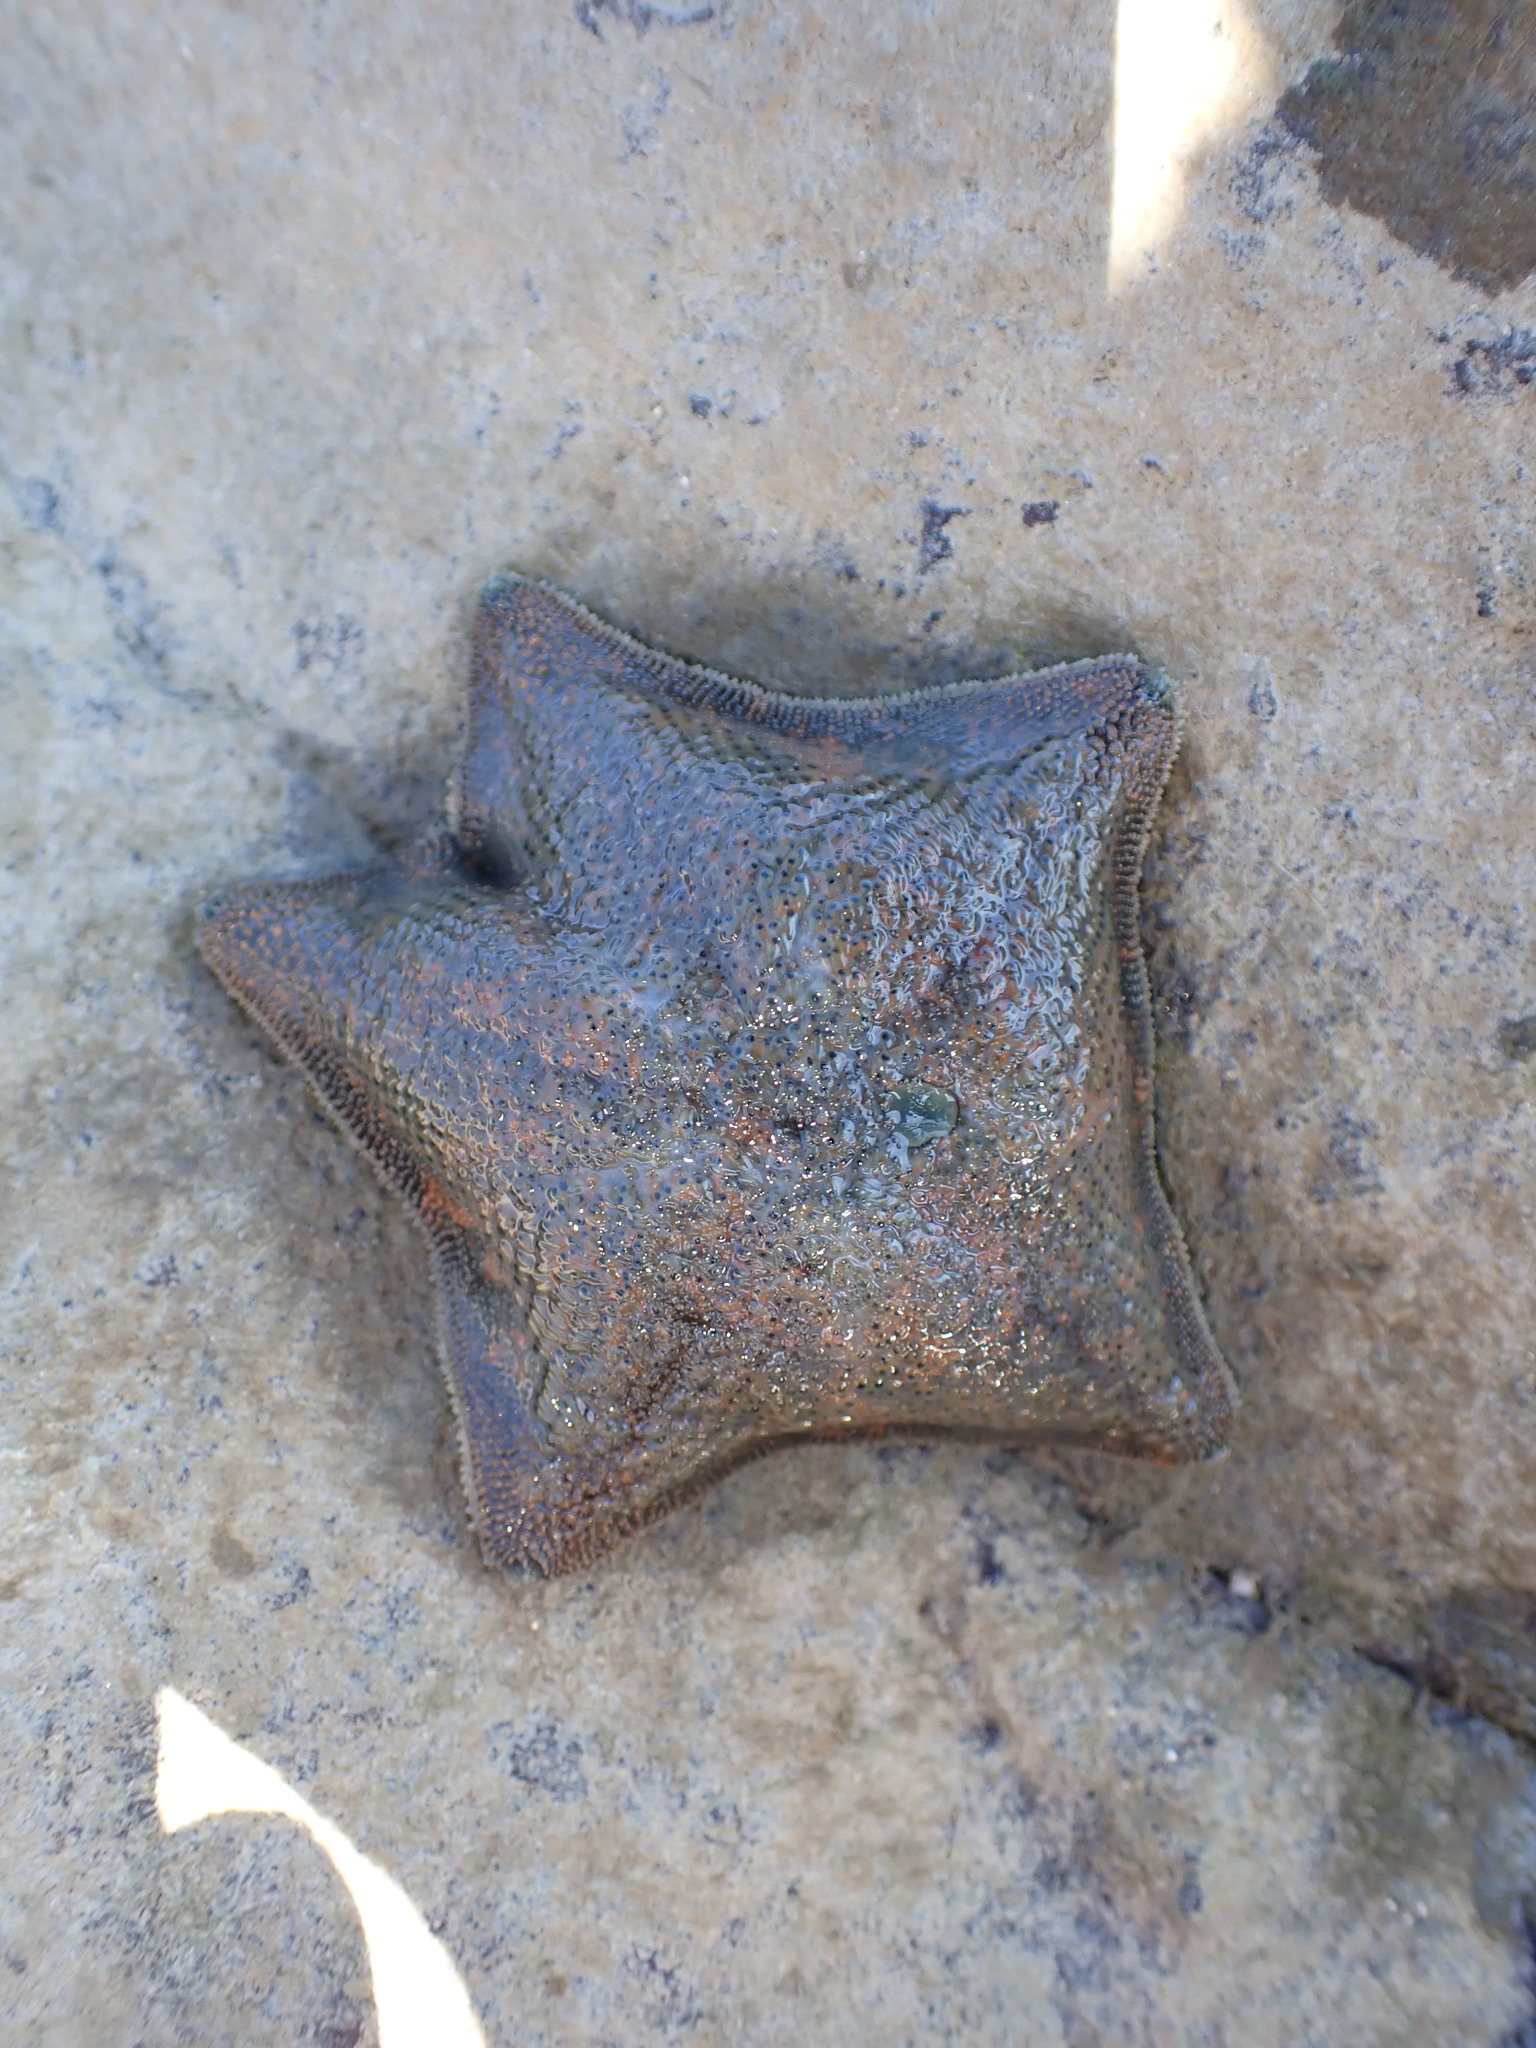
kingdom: Animalia
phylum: Echinodermata
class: Asteroidea
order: Valvatida
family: Asterinidae
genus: Patiriella
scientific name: Patiriella regularis
